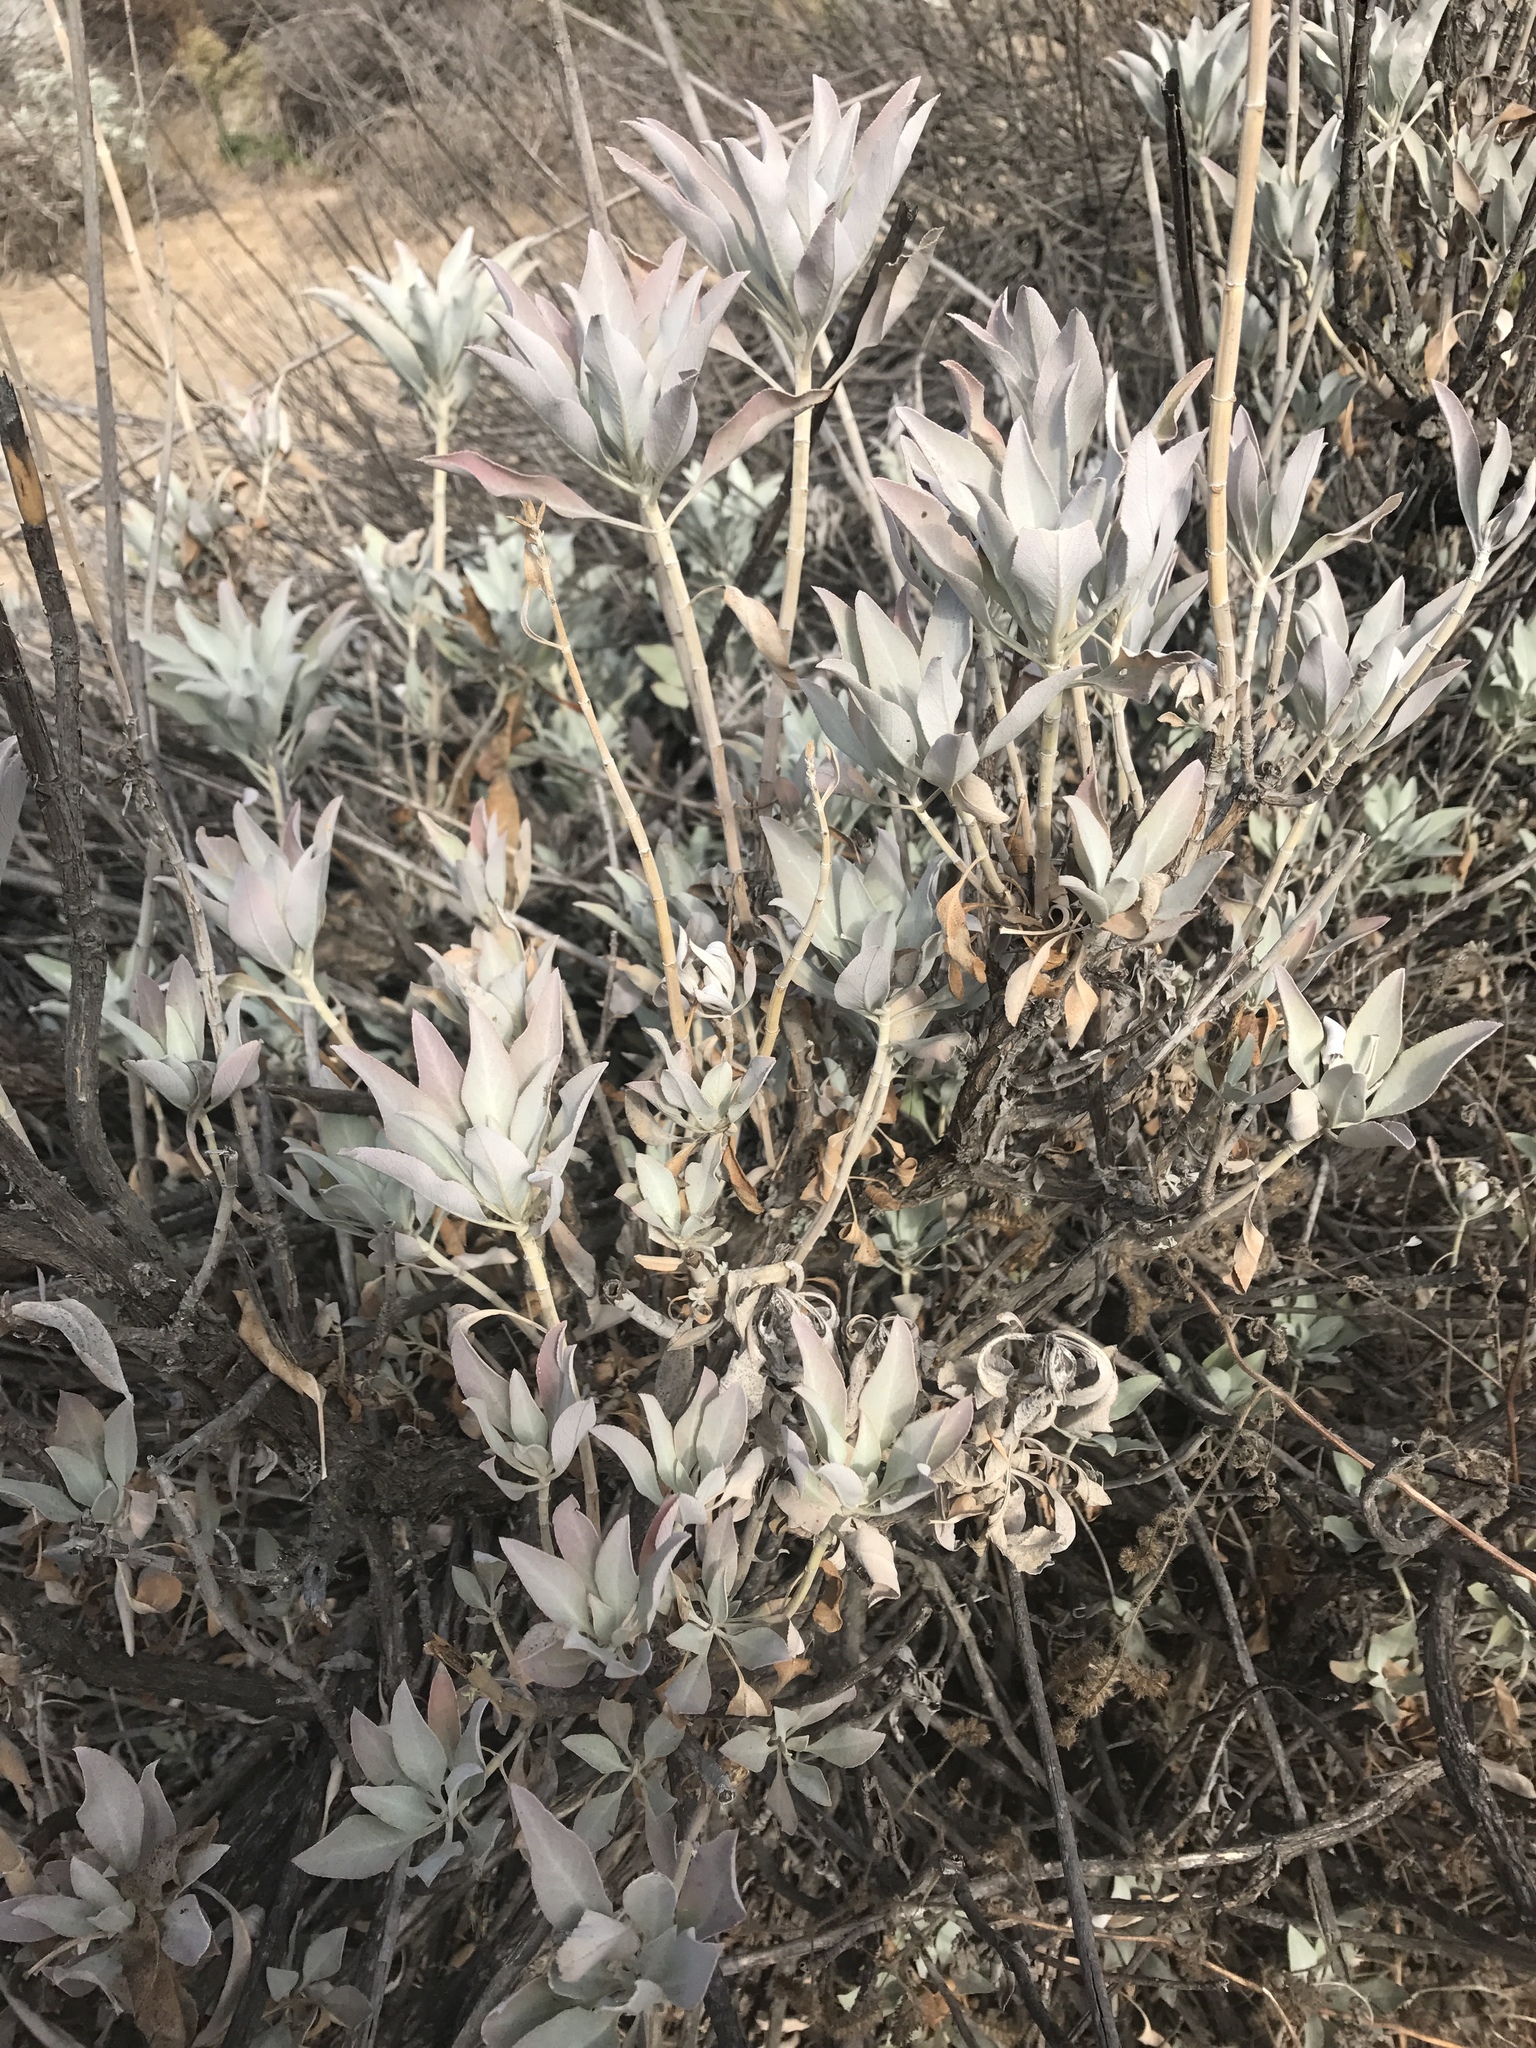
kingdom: Plantae
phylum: Tracheophyta
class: Magnoliopsida
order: Lamiales
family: Lamiaceae
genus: Salvia
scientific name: Salvia apiana
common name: White sage
